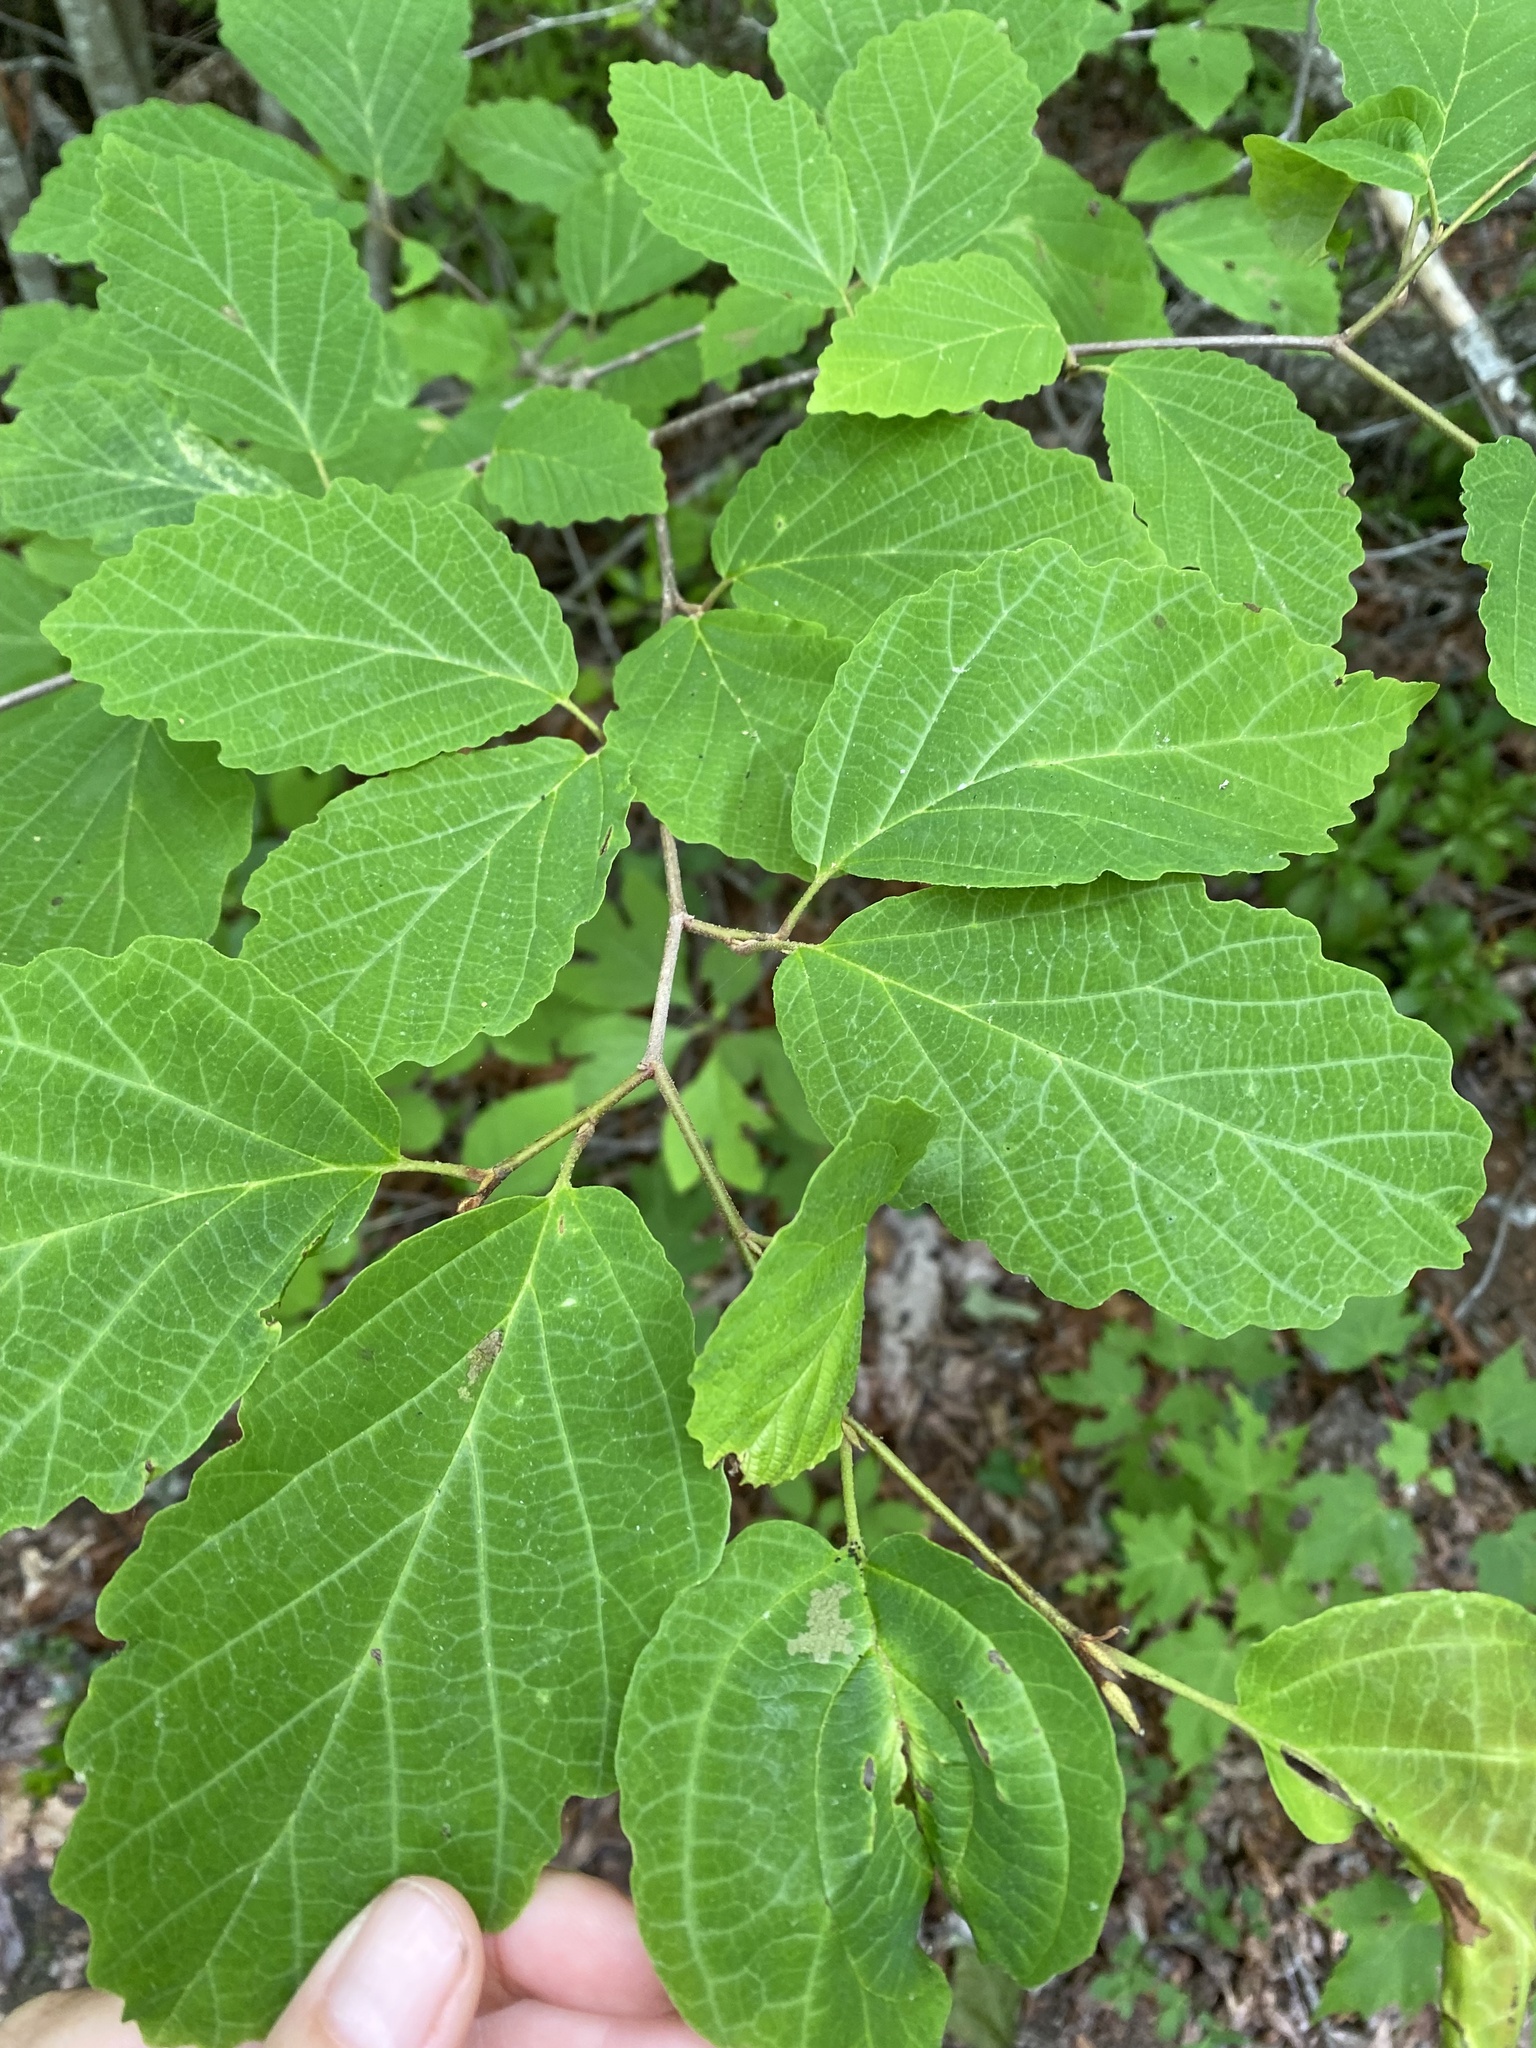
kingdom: Plantae
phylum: Tracheophyta
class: Magnoliopsida
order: Saxifragales
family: Hamamelidaceae
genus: Hamamelis
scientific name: Hamamelis virginiana
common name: Witch-hazel
